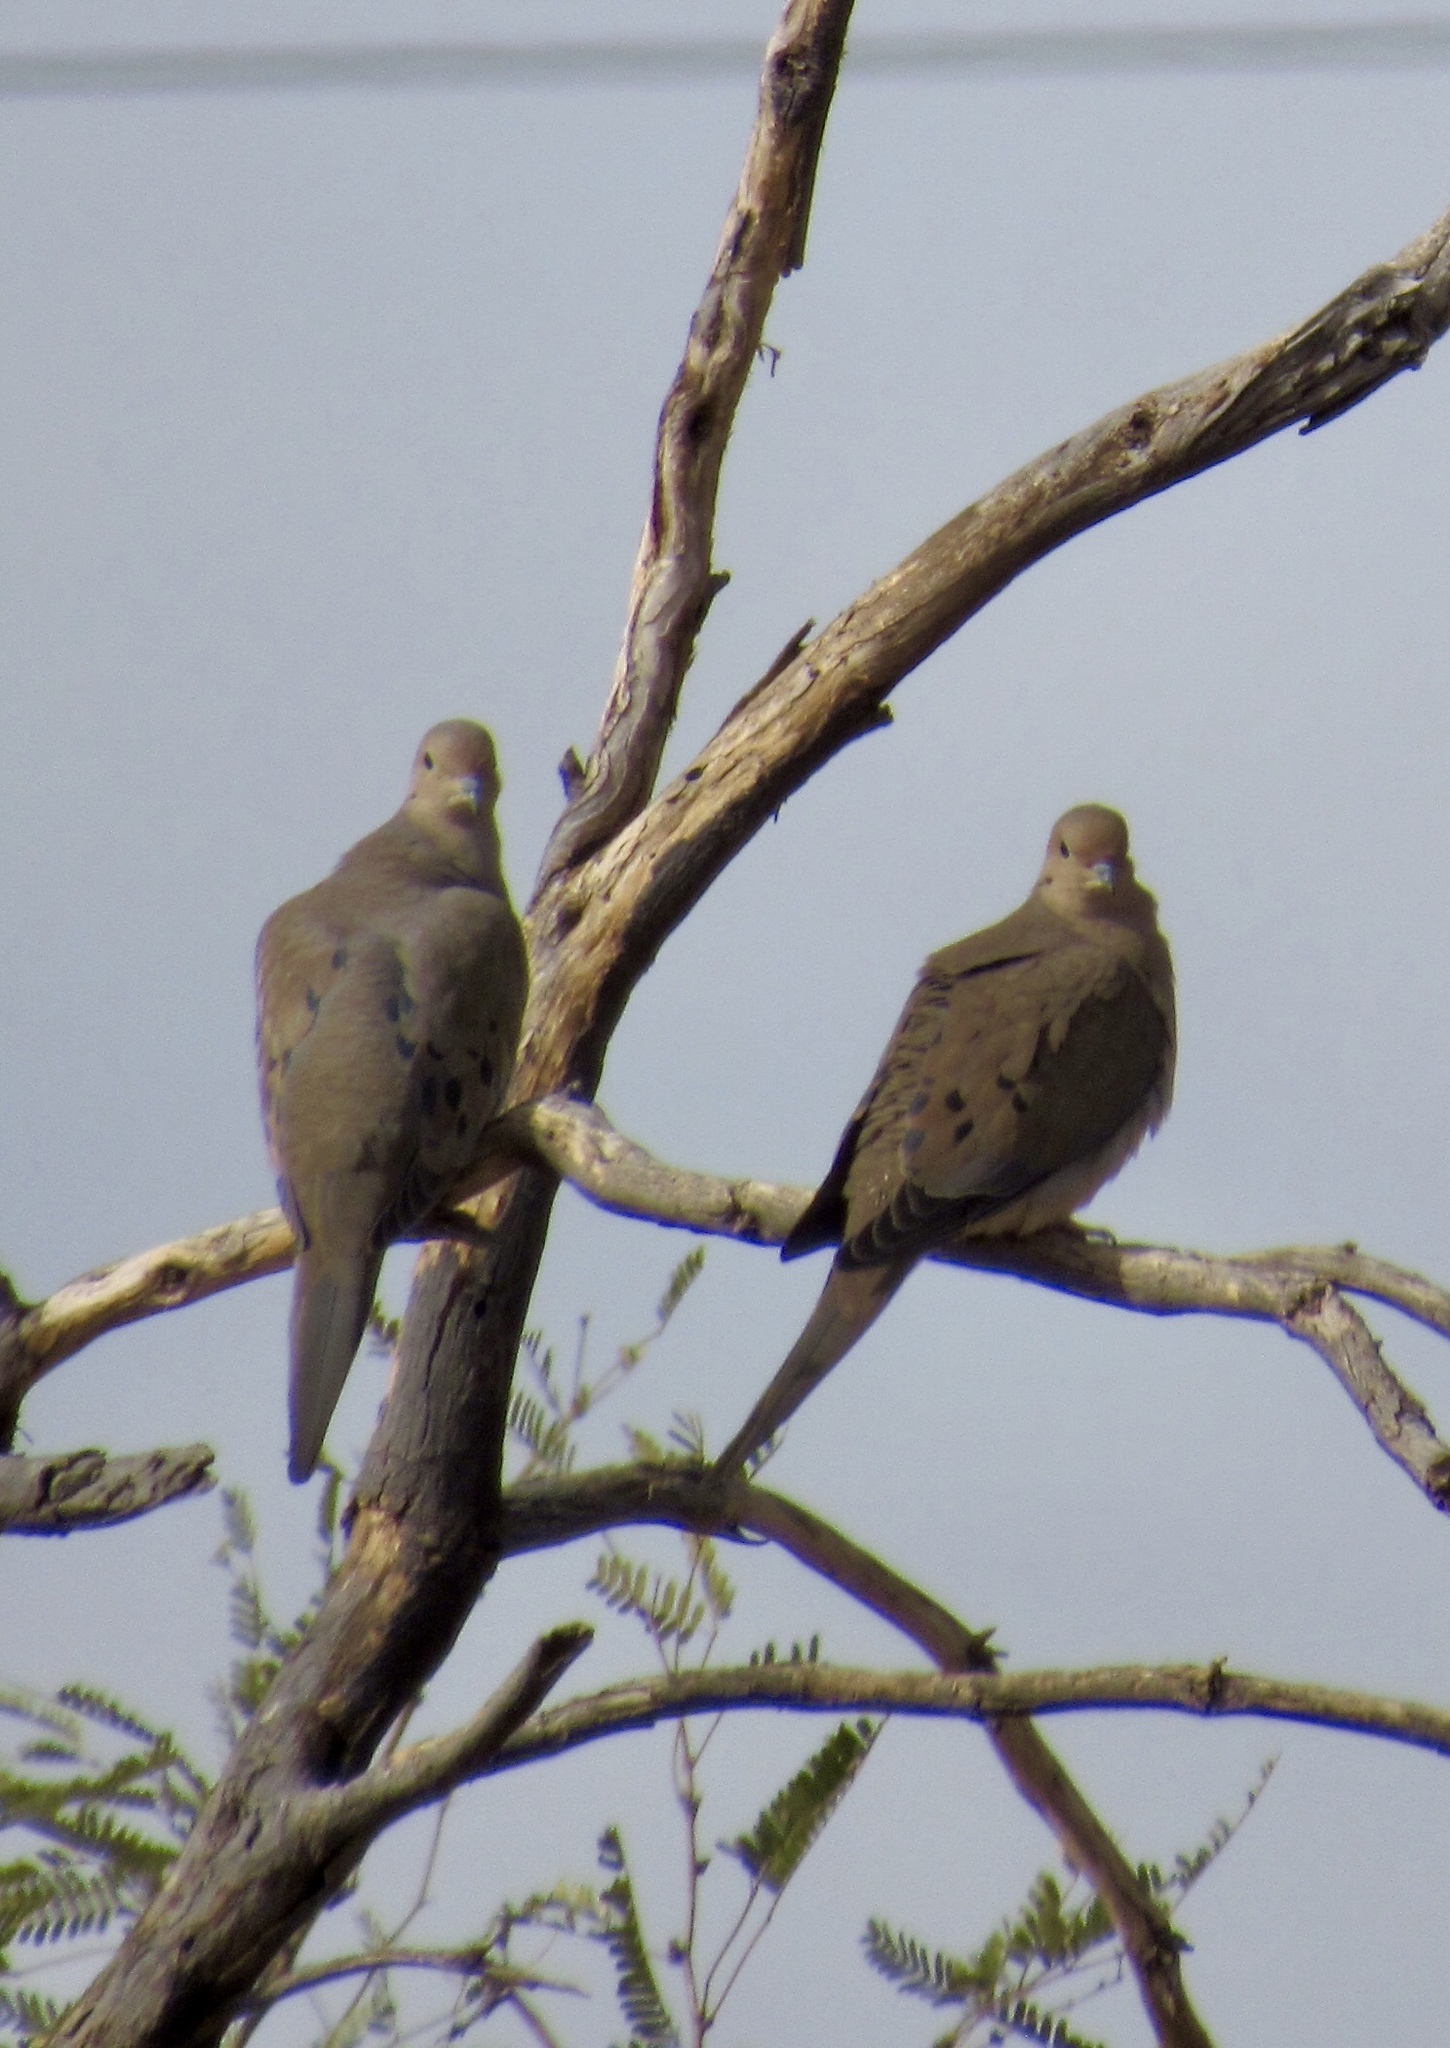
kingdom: Animalia
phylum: Chordata
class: Aves
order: Columbiformes
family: Columbidae
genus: Zenaida
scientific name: Zenaida macroura
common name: Mourning dove
